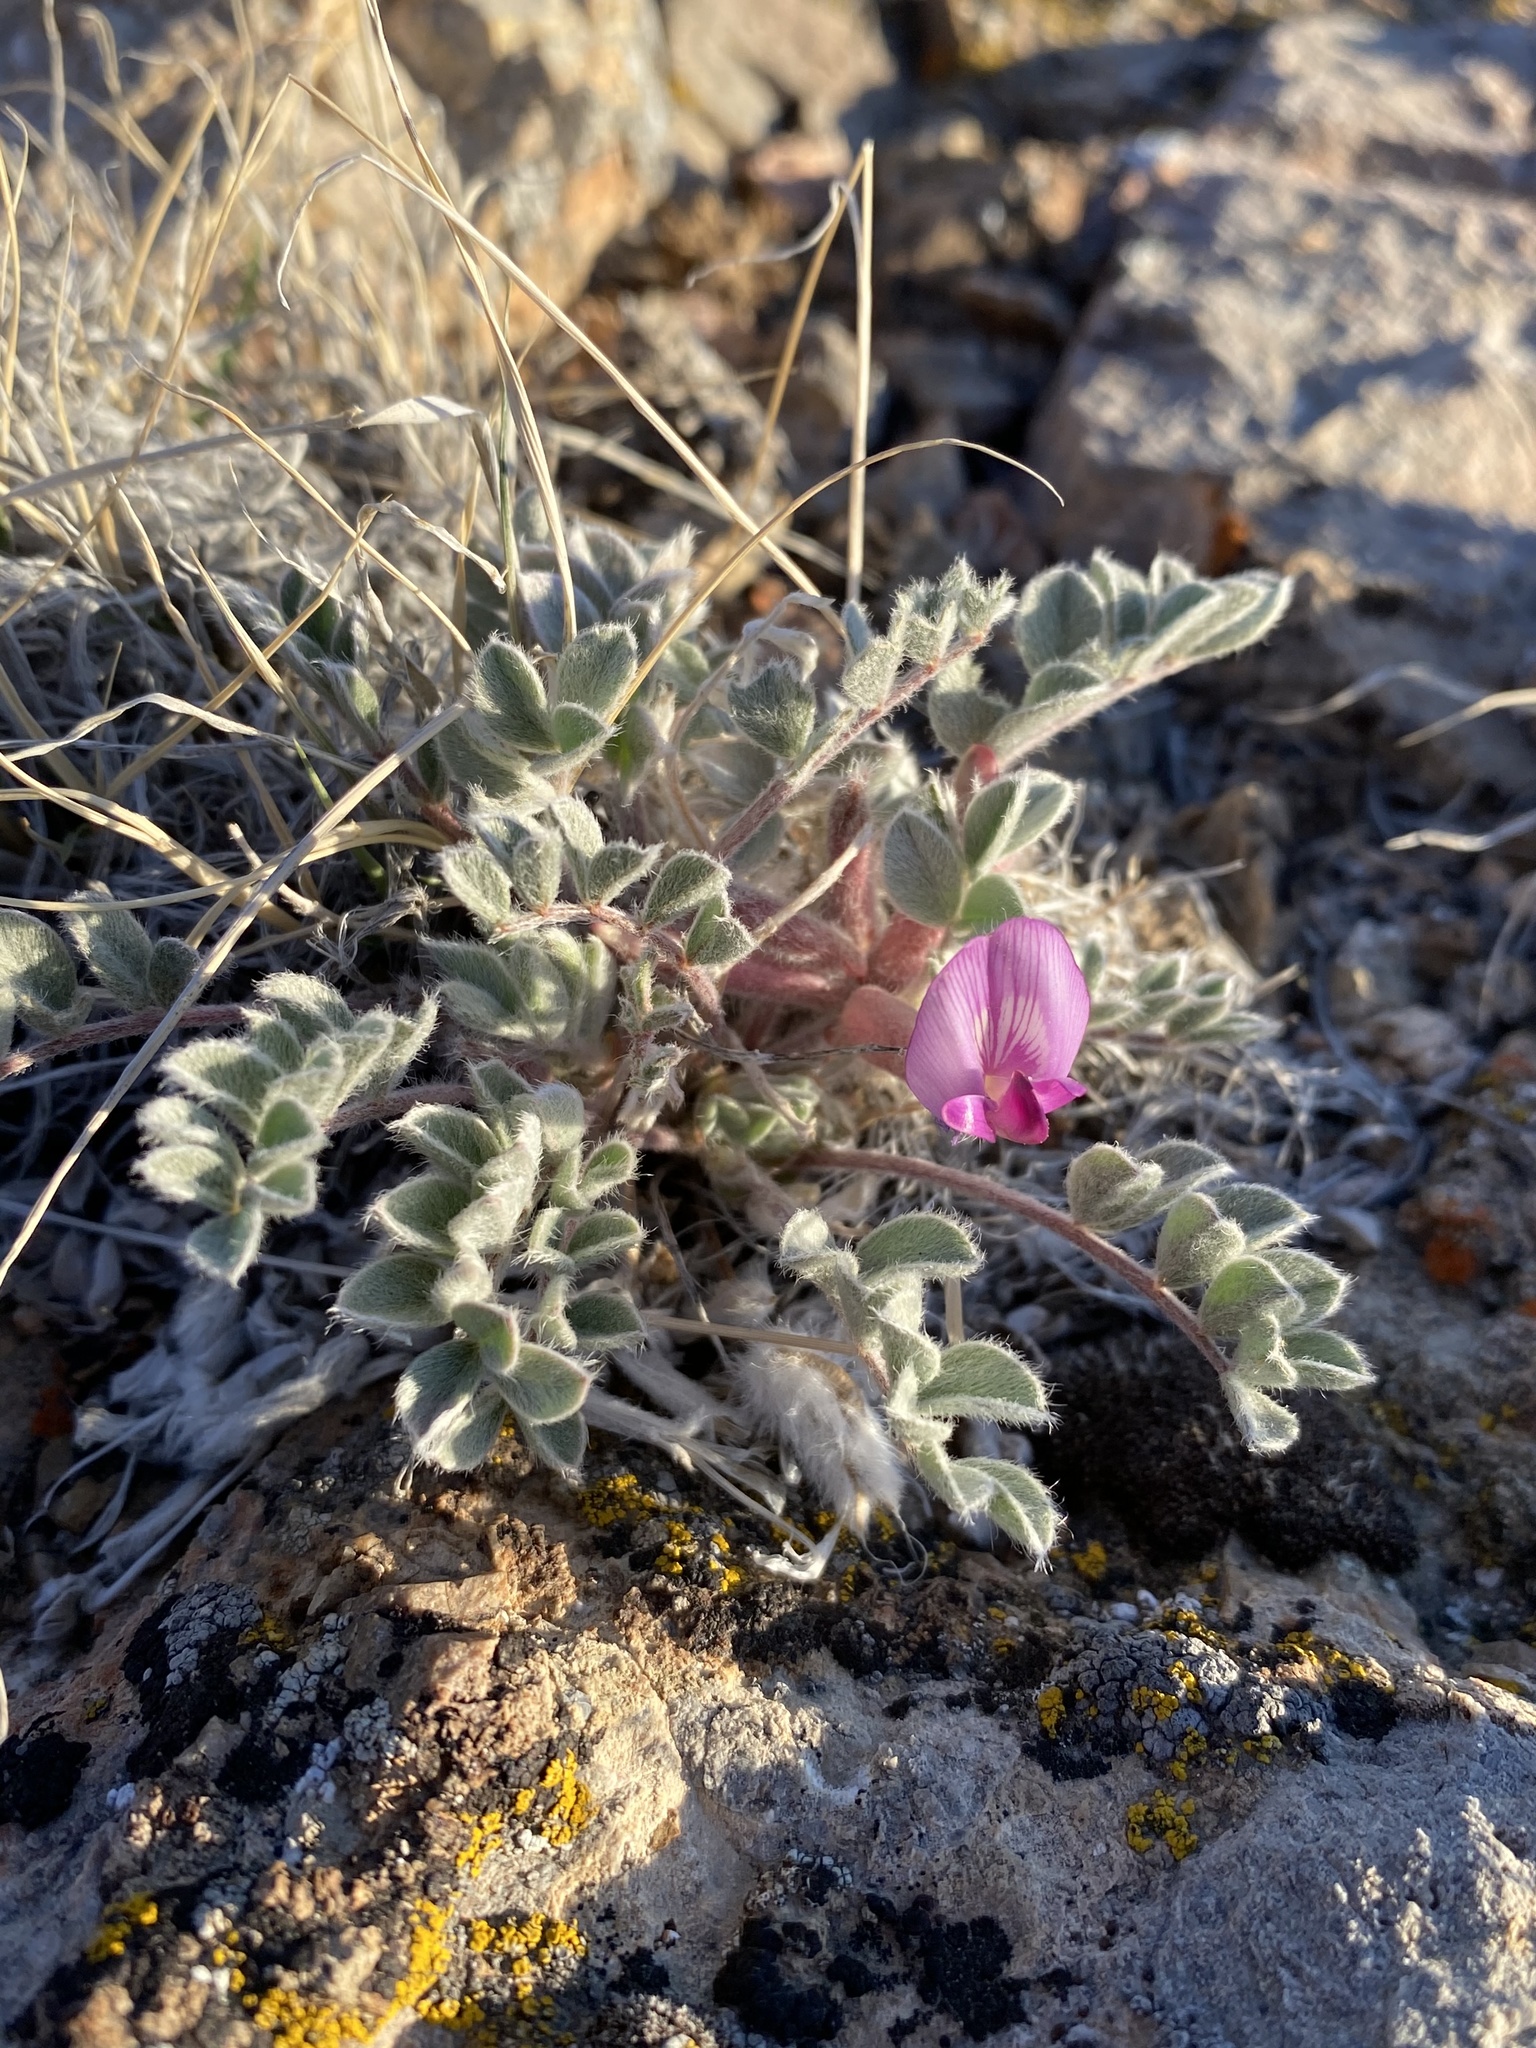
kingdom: Plantae
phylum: Tracheophyta
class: Magnoliopsida
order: Fabales
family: Fabaceae
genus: Astragalus
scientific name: Astragalus purshii
